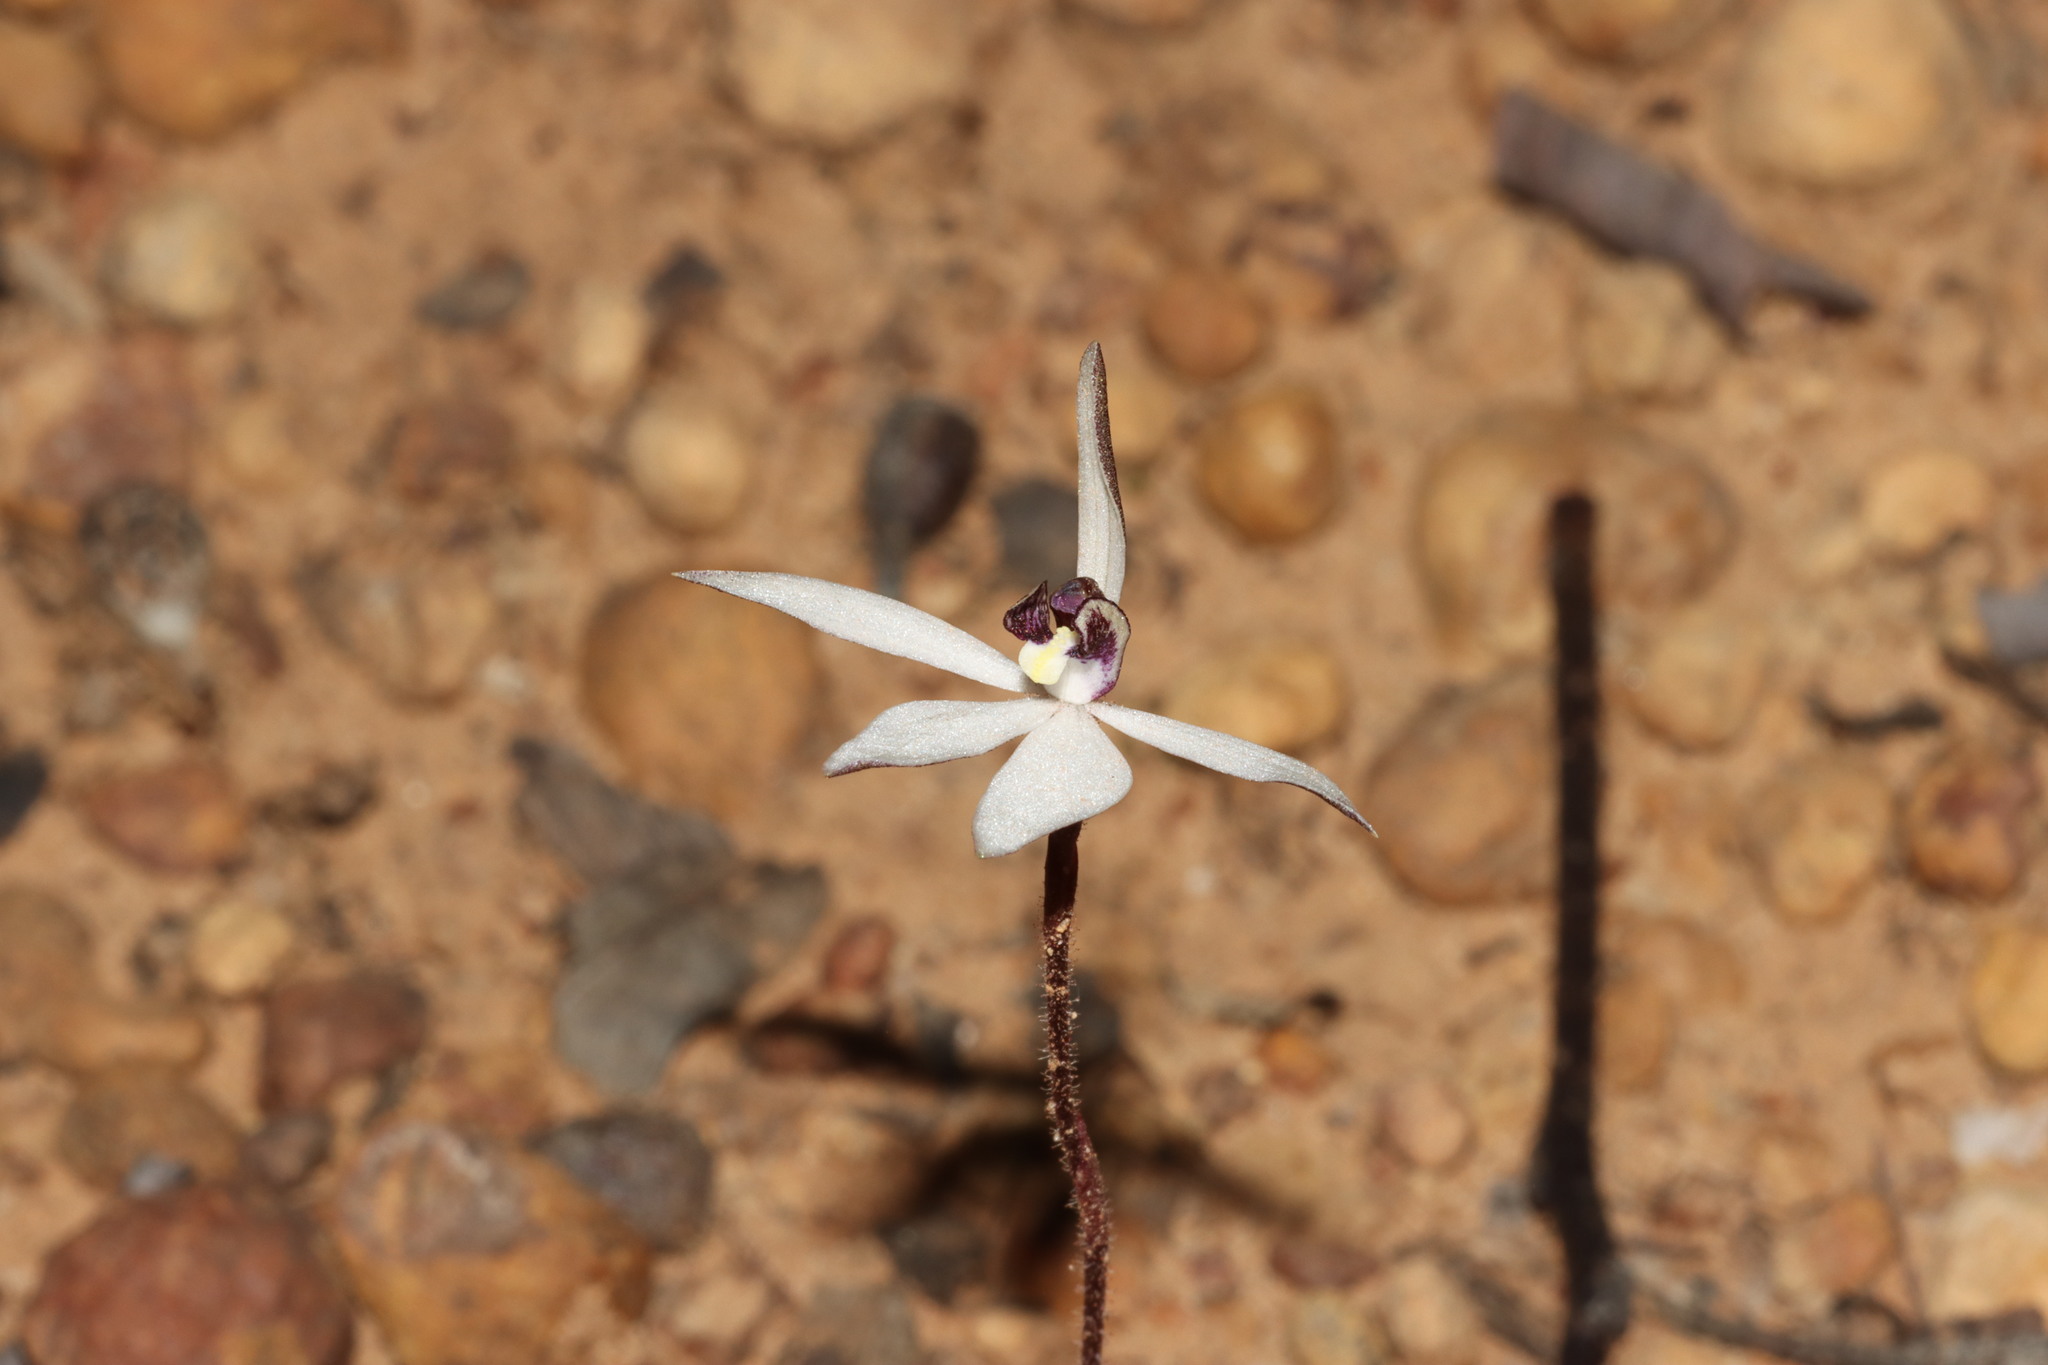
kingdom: Plantae
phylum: Tracheophyta
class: Liliopsida
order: Asparagales
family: Orchidaceae
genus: Caladenia
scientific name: Caladenia saccharata
